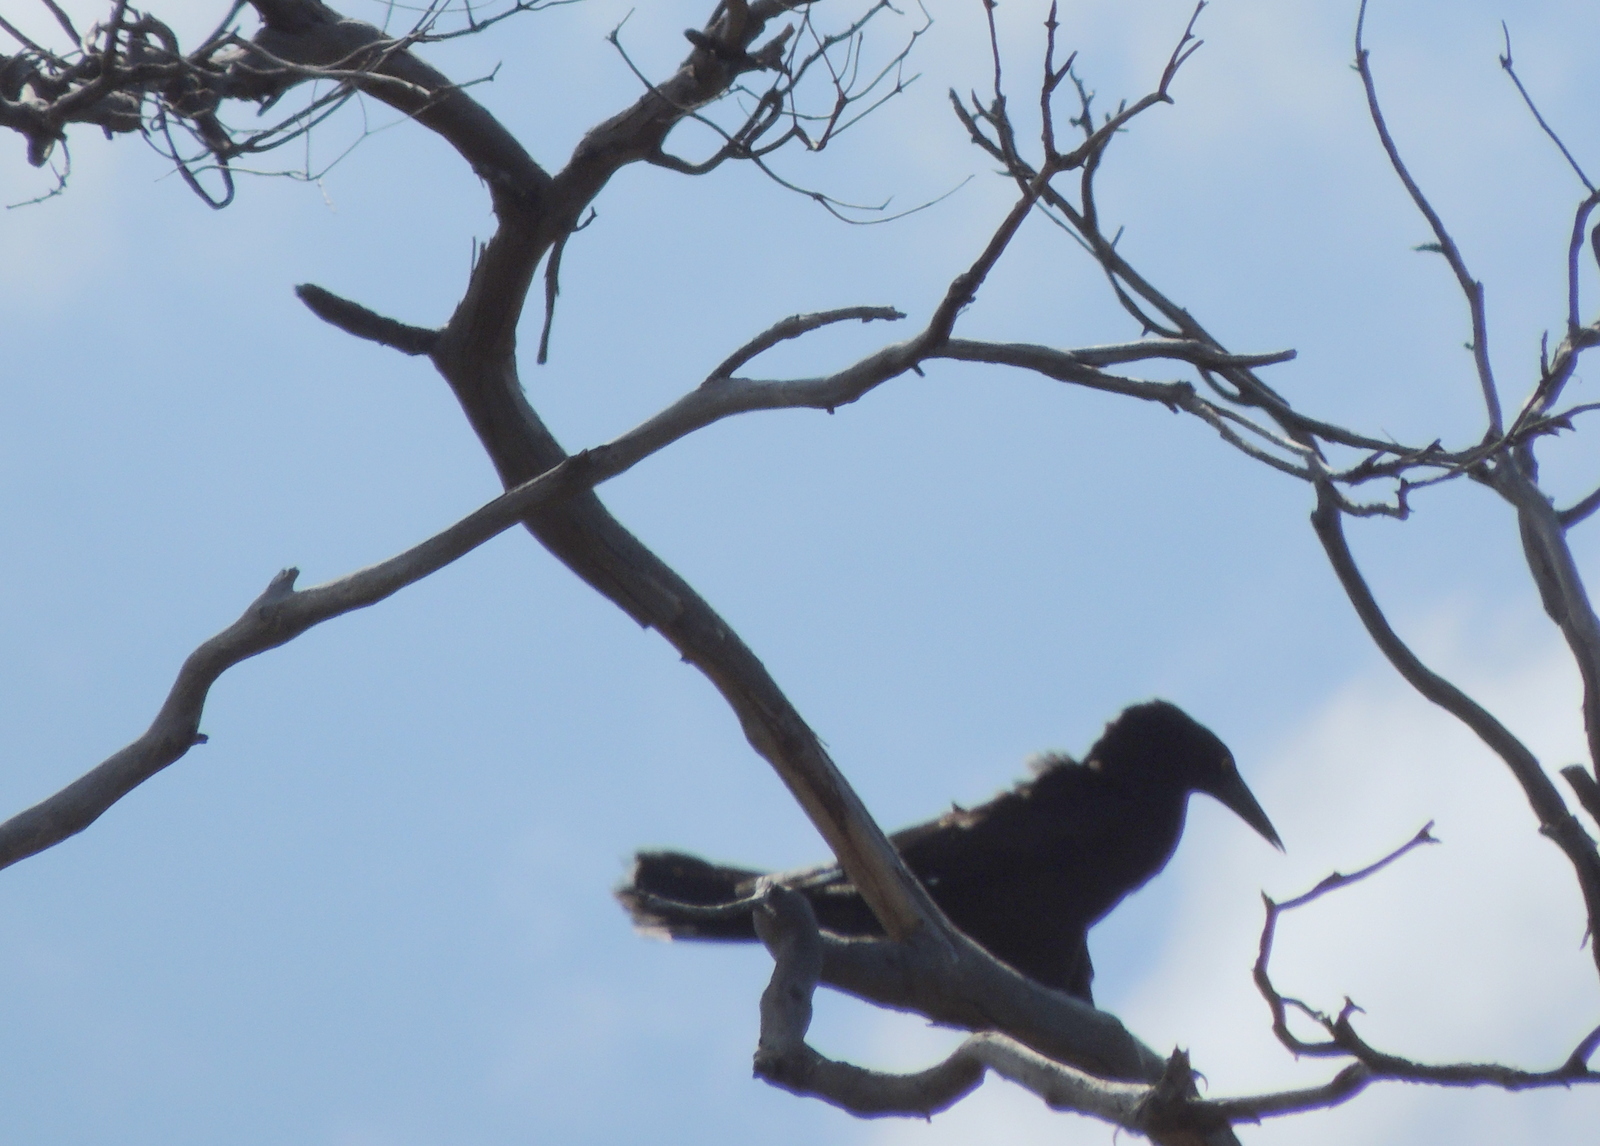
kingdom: Animalia
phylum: Chordata
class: Aves
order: Passeriformes
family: Cracticidae
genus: Strepera
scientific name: Strepera versicolor
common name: Grey currawong
